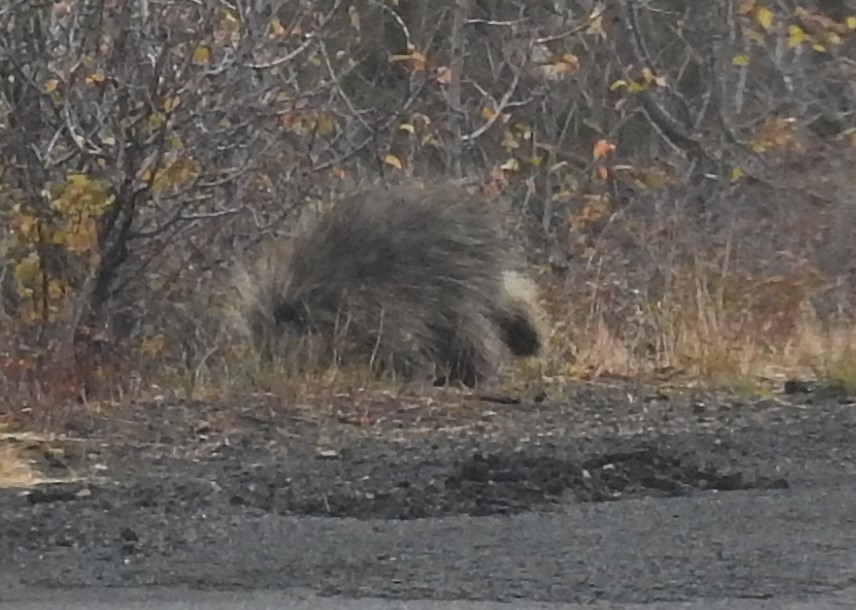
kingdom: Animalia
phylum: Chordata
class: Mammalia
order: Rodentia
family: Erethizontidae
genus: Erethizon
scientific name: Erethizon dorsatus
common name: North american porcupine
